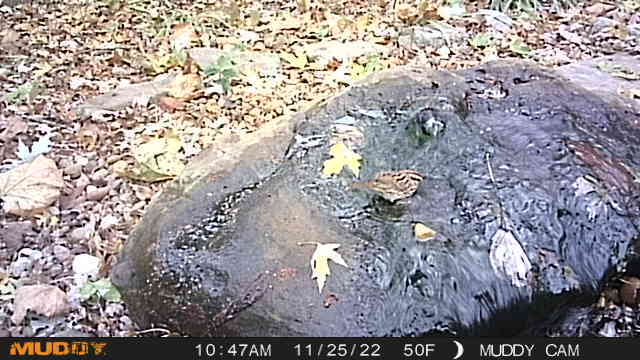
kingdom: Animalia
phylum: Chordata
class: Aves
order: Passeriformes
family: Passerellidae
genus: Melospiza
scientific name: Melospiza melodia
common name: Song sparrow
